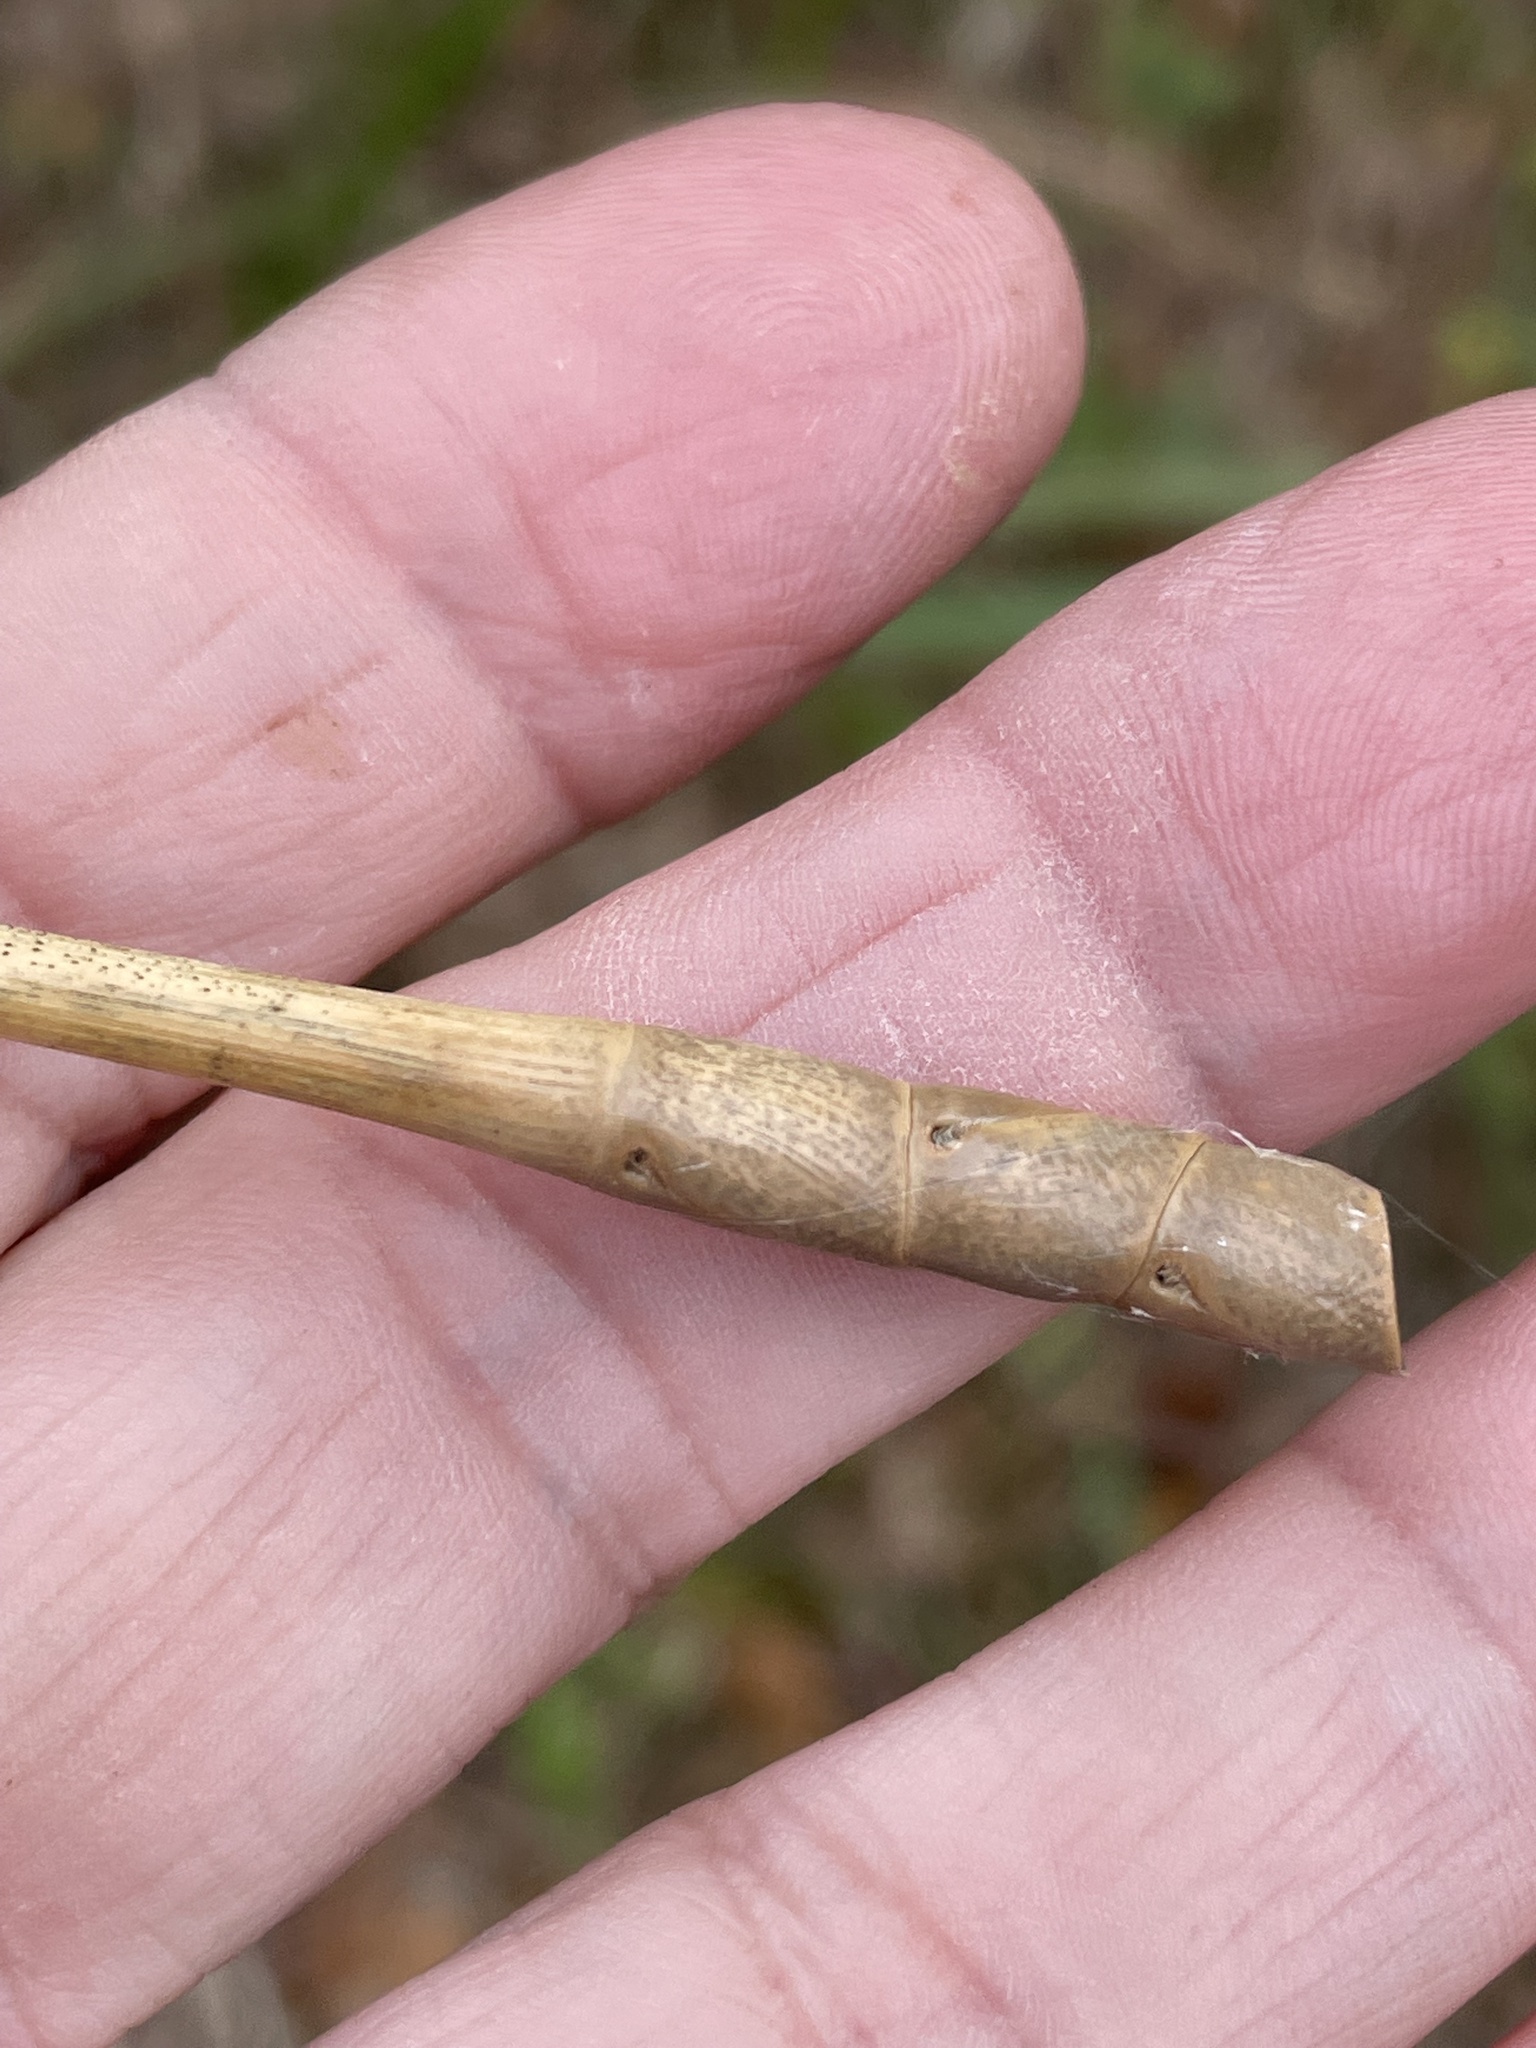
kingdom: Plantae
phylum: Tracheophyta
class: Liliopsida
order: Poales
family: Poaceae
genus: Tripsacum
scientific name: Tripsacum dactyloides
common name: Buffalo-grass
